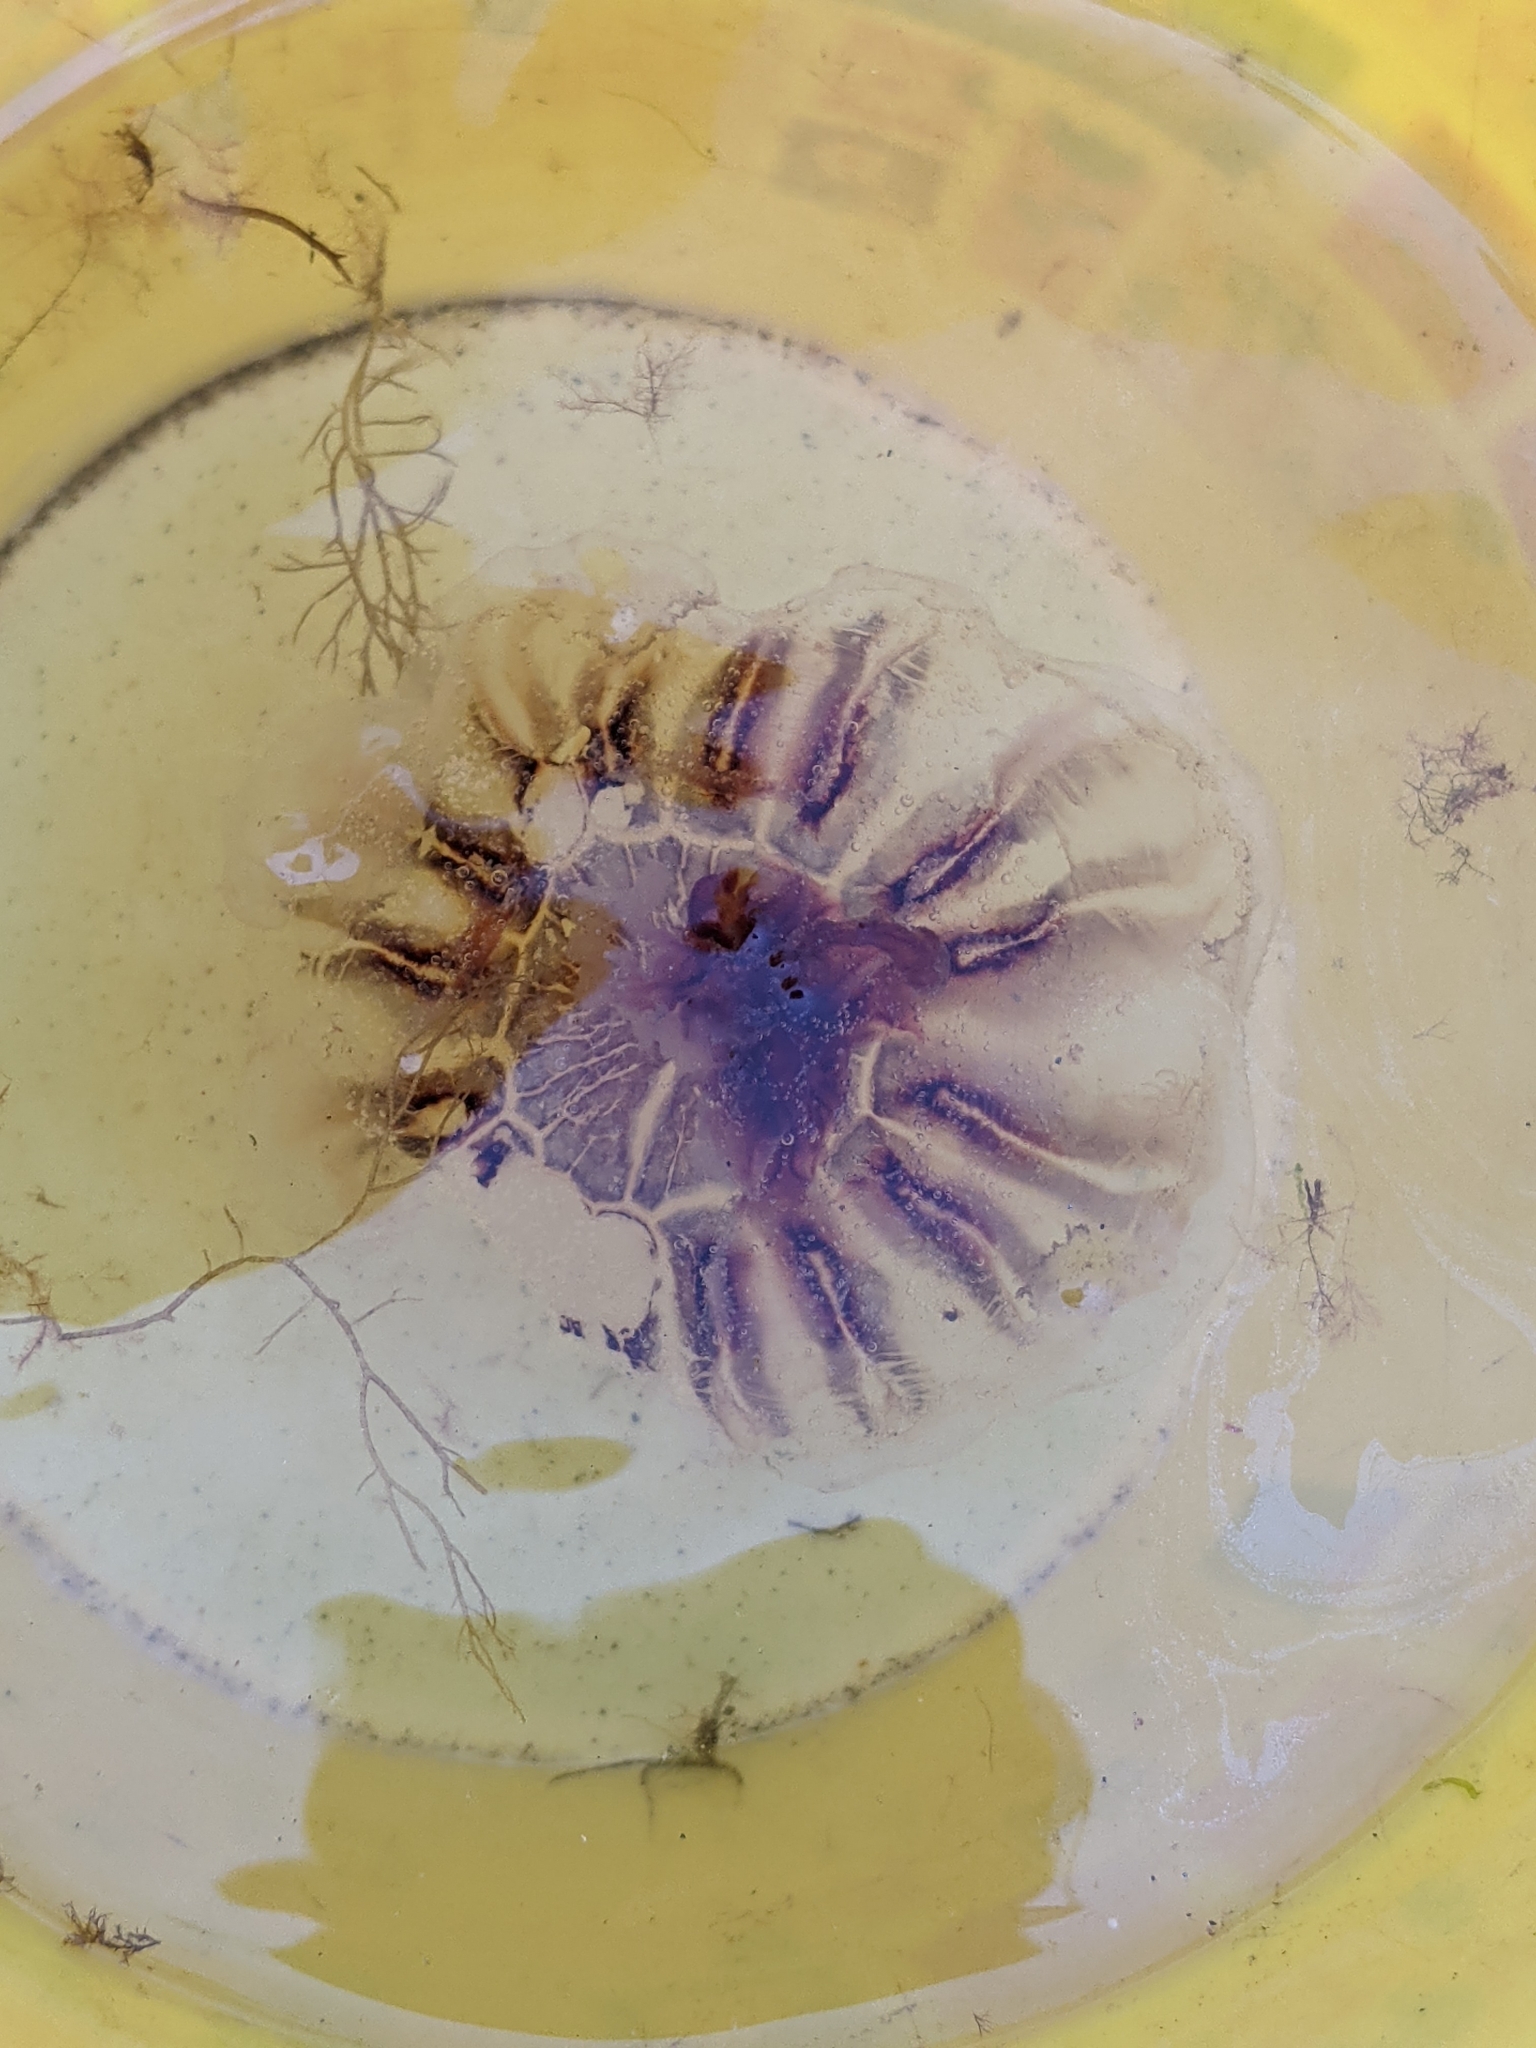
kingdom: Animalia
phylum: Cnidaria
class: Scyphozoa
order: Semaeostomeae
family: Cyaneidae
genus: Cyanea
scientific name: Cyanea versicolor
